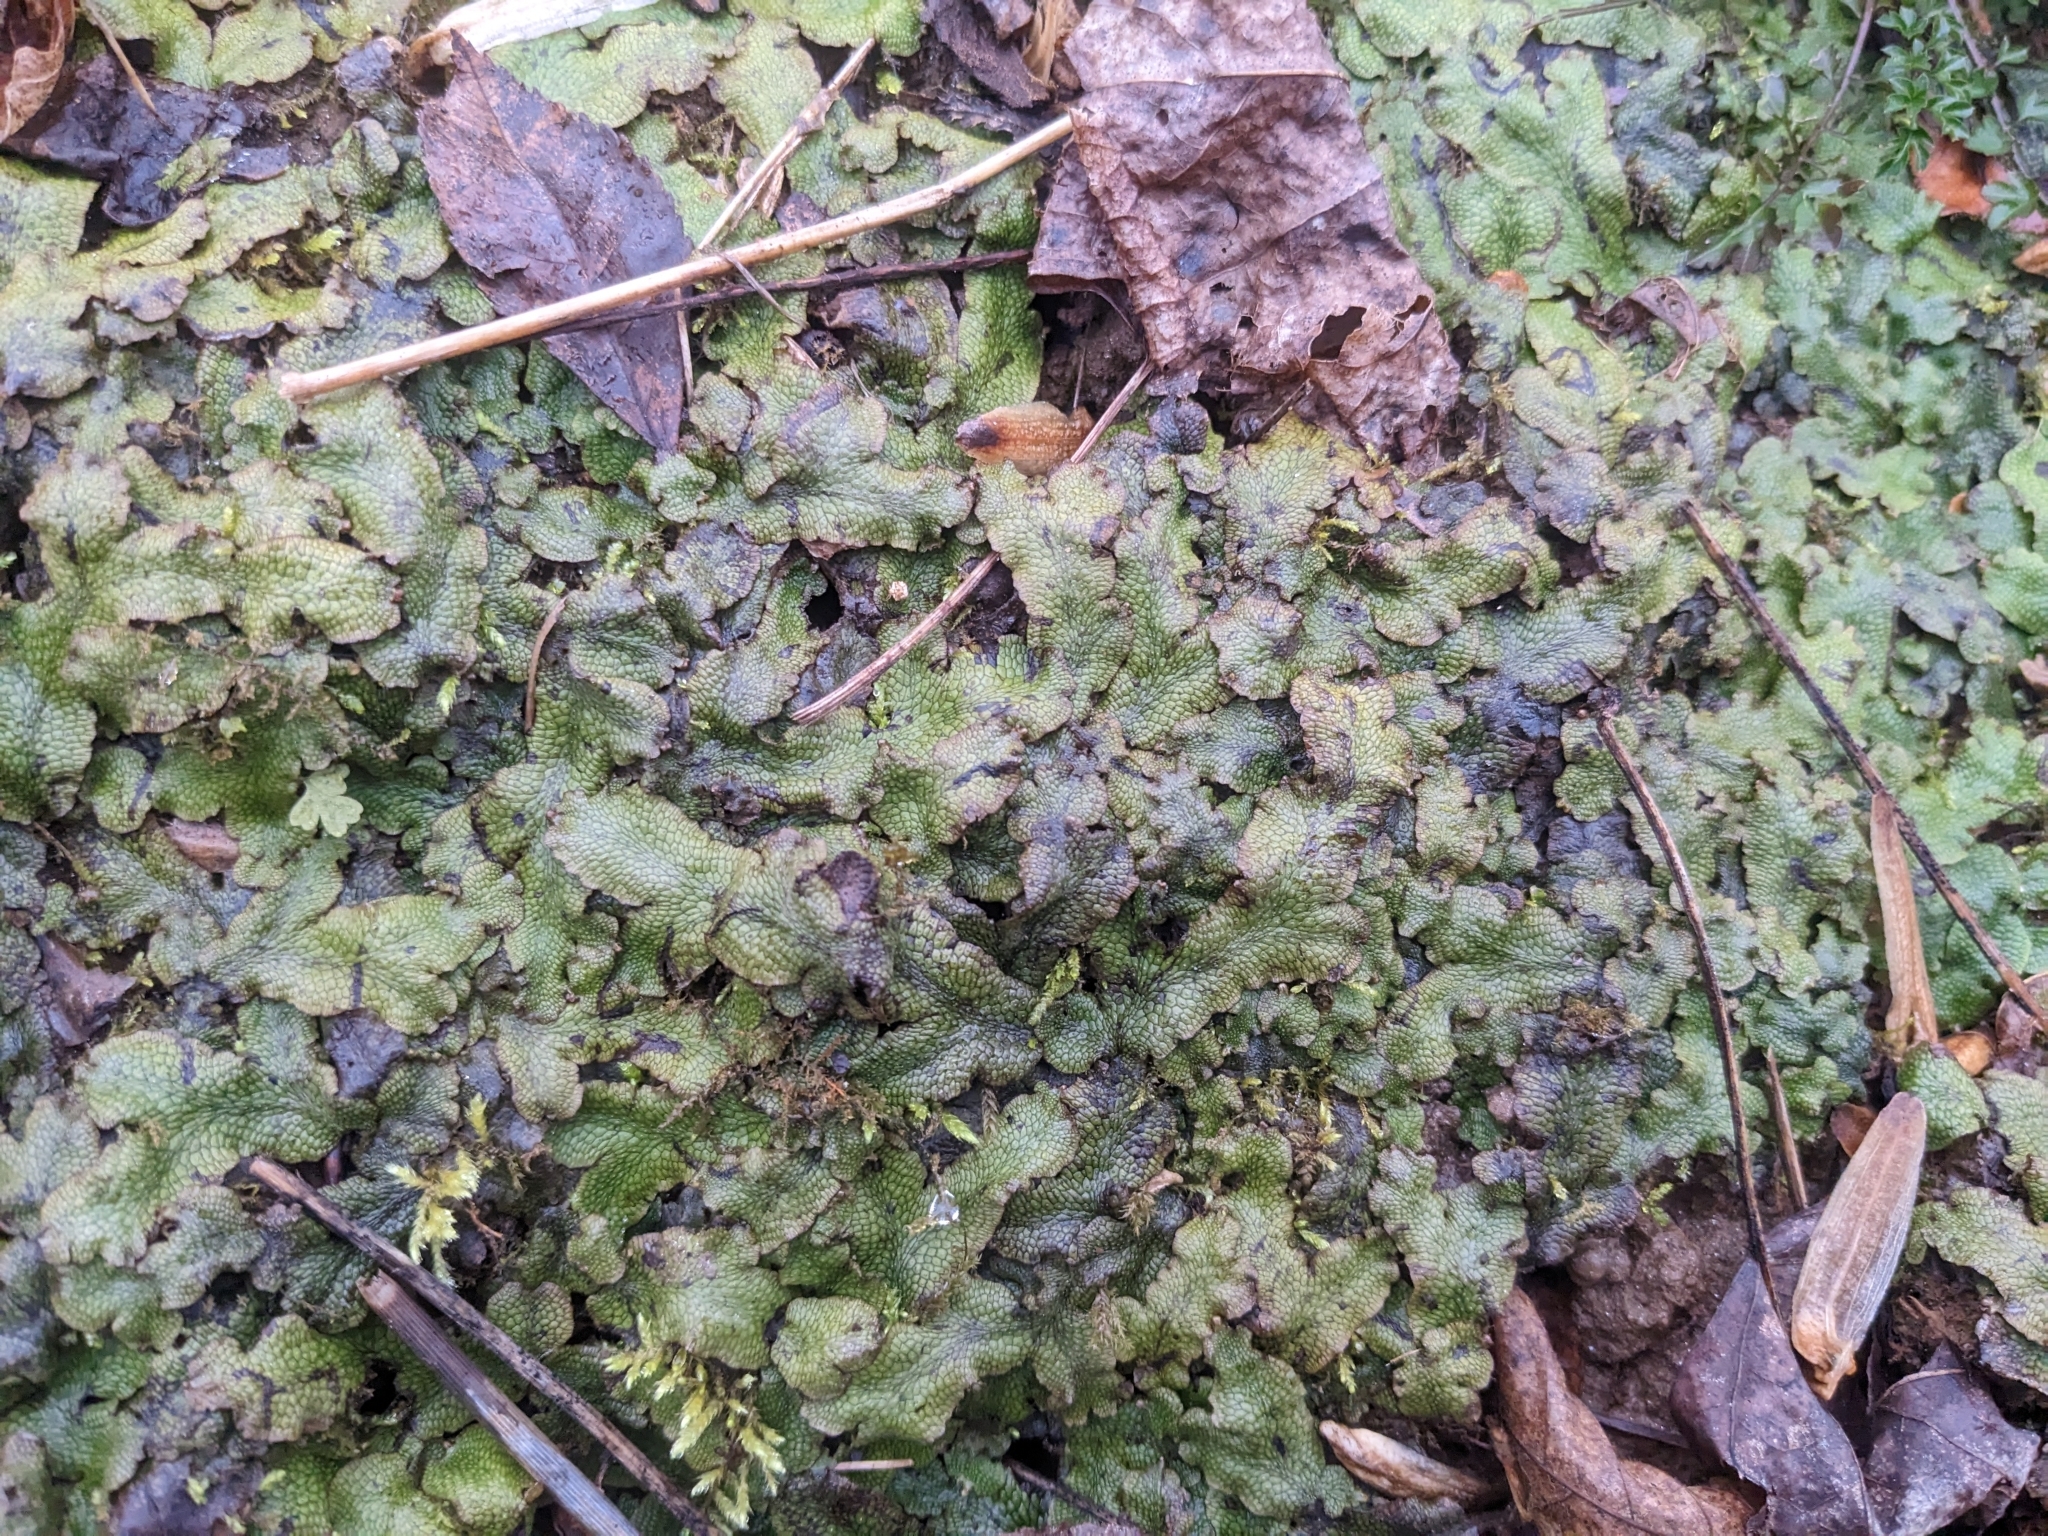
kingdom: Plantae
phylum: Marchantiophyta
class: Marchantiopsida
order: Marchantiales
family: Conocephalaceae
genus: Conocephalum
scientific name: Conocephalum salebrosum
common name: Cat-tongue liverwort
